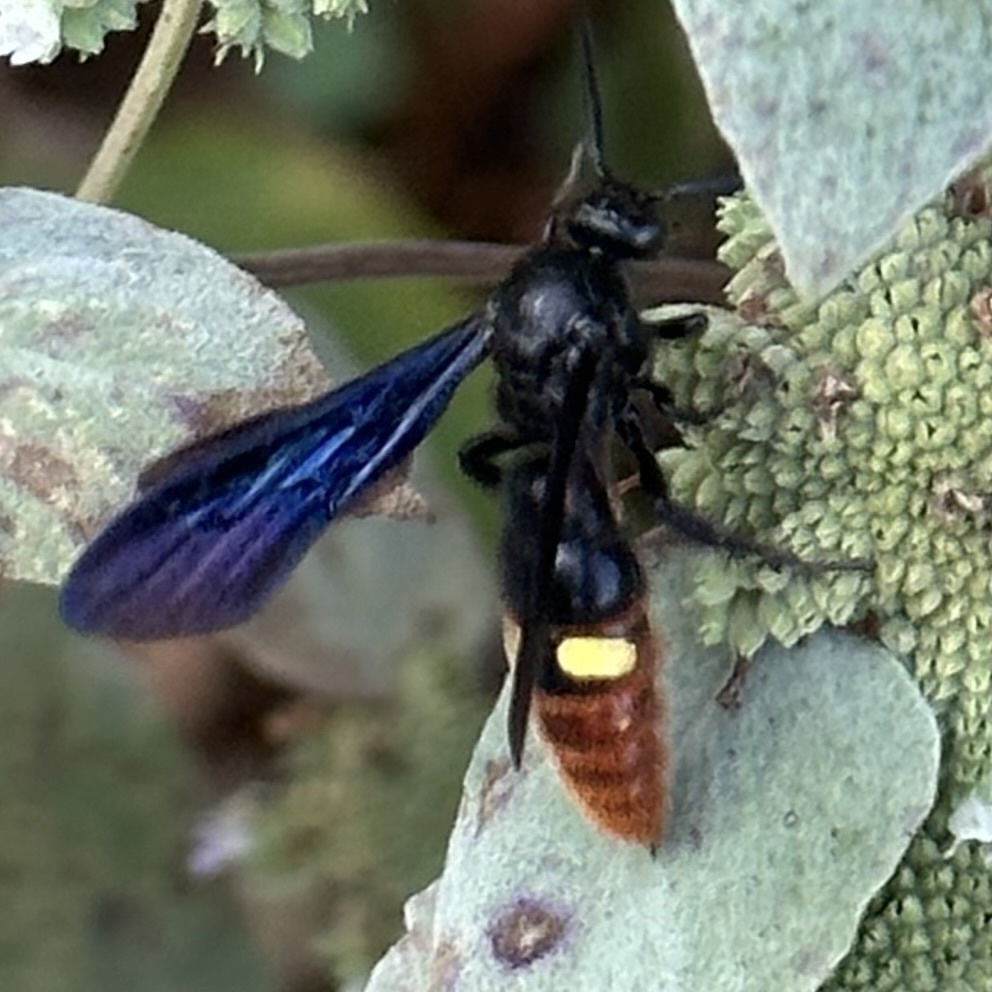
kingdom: Animalia
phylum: Arthropoda
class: Insecta
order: Hymenoptera
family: Scoliidae
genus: Scolia
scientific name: Scolia dubia
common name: Blue-winged scoliid wasp
